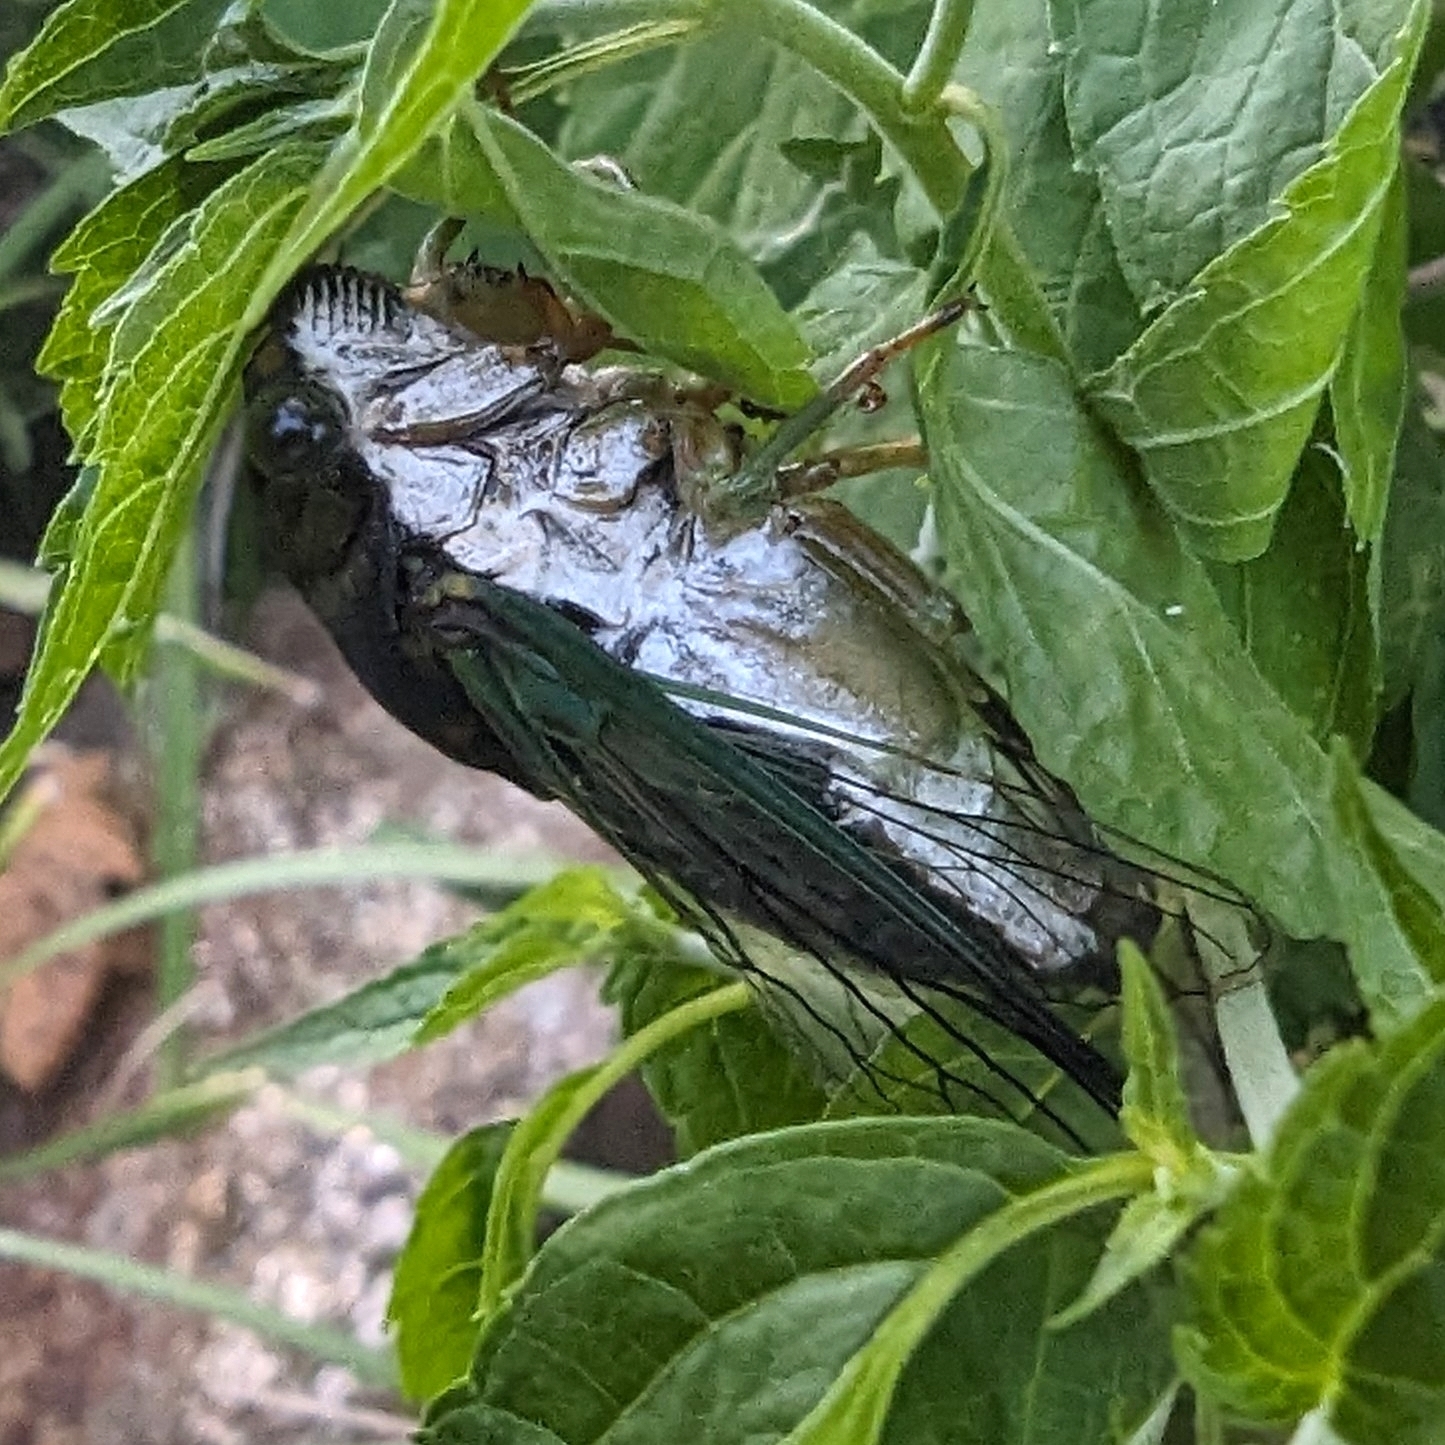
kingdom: Animalia
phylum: Arthropoda
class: Insecta
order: Hemiptera
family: Cicadidae
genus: Neotibicen
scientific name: Neotibicen tibicen
